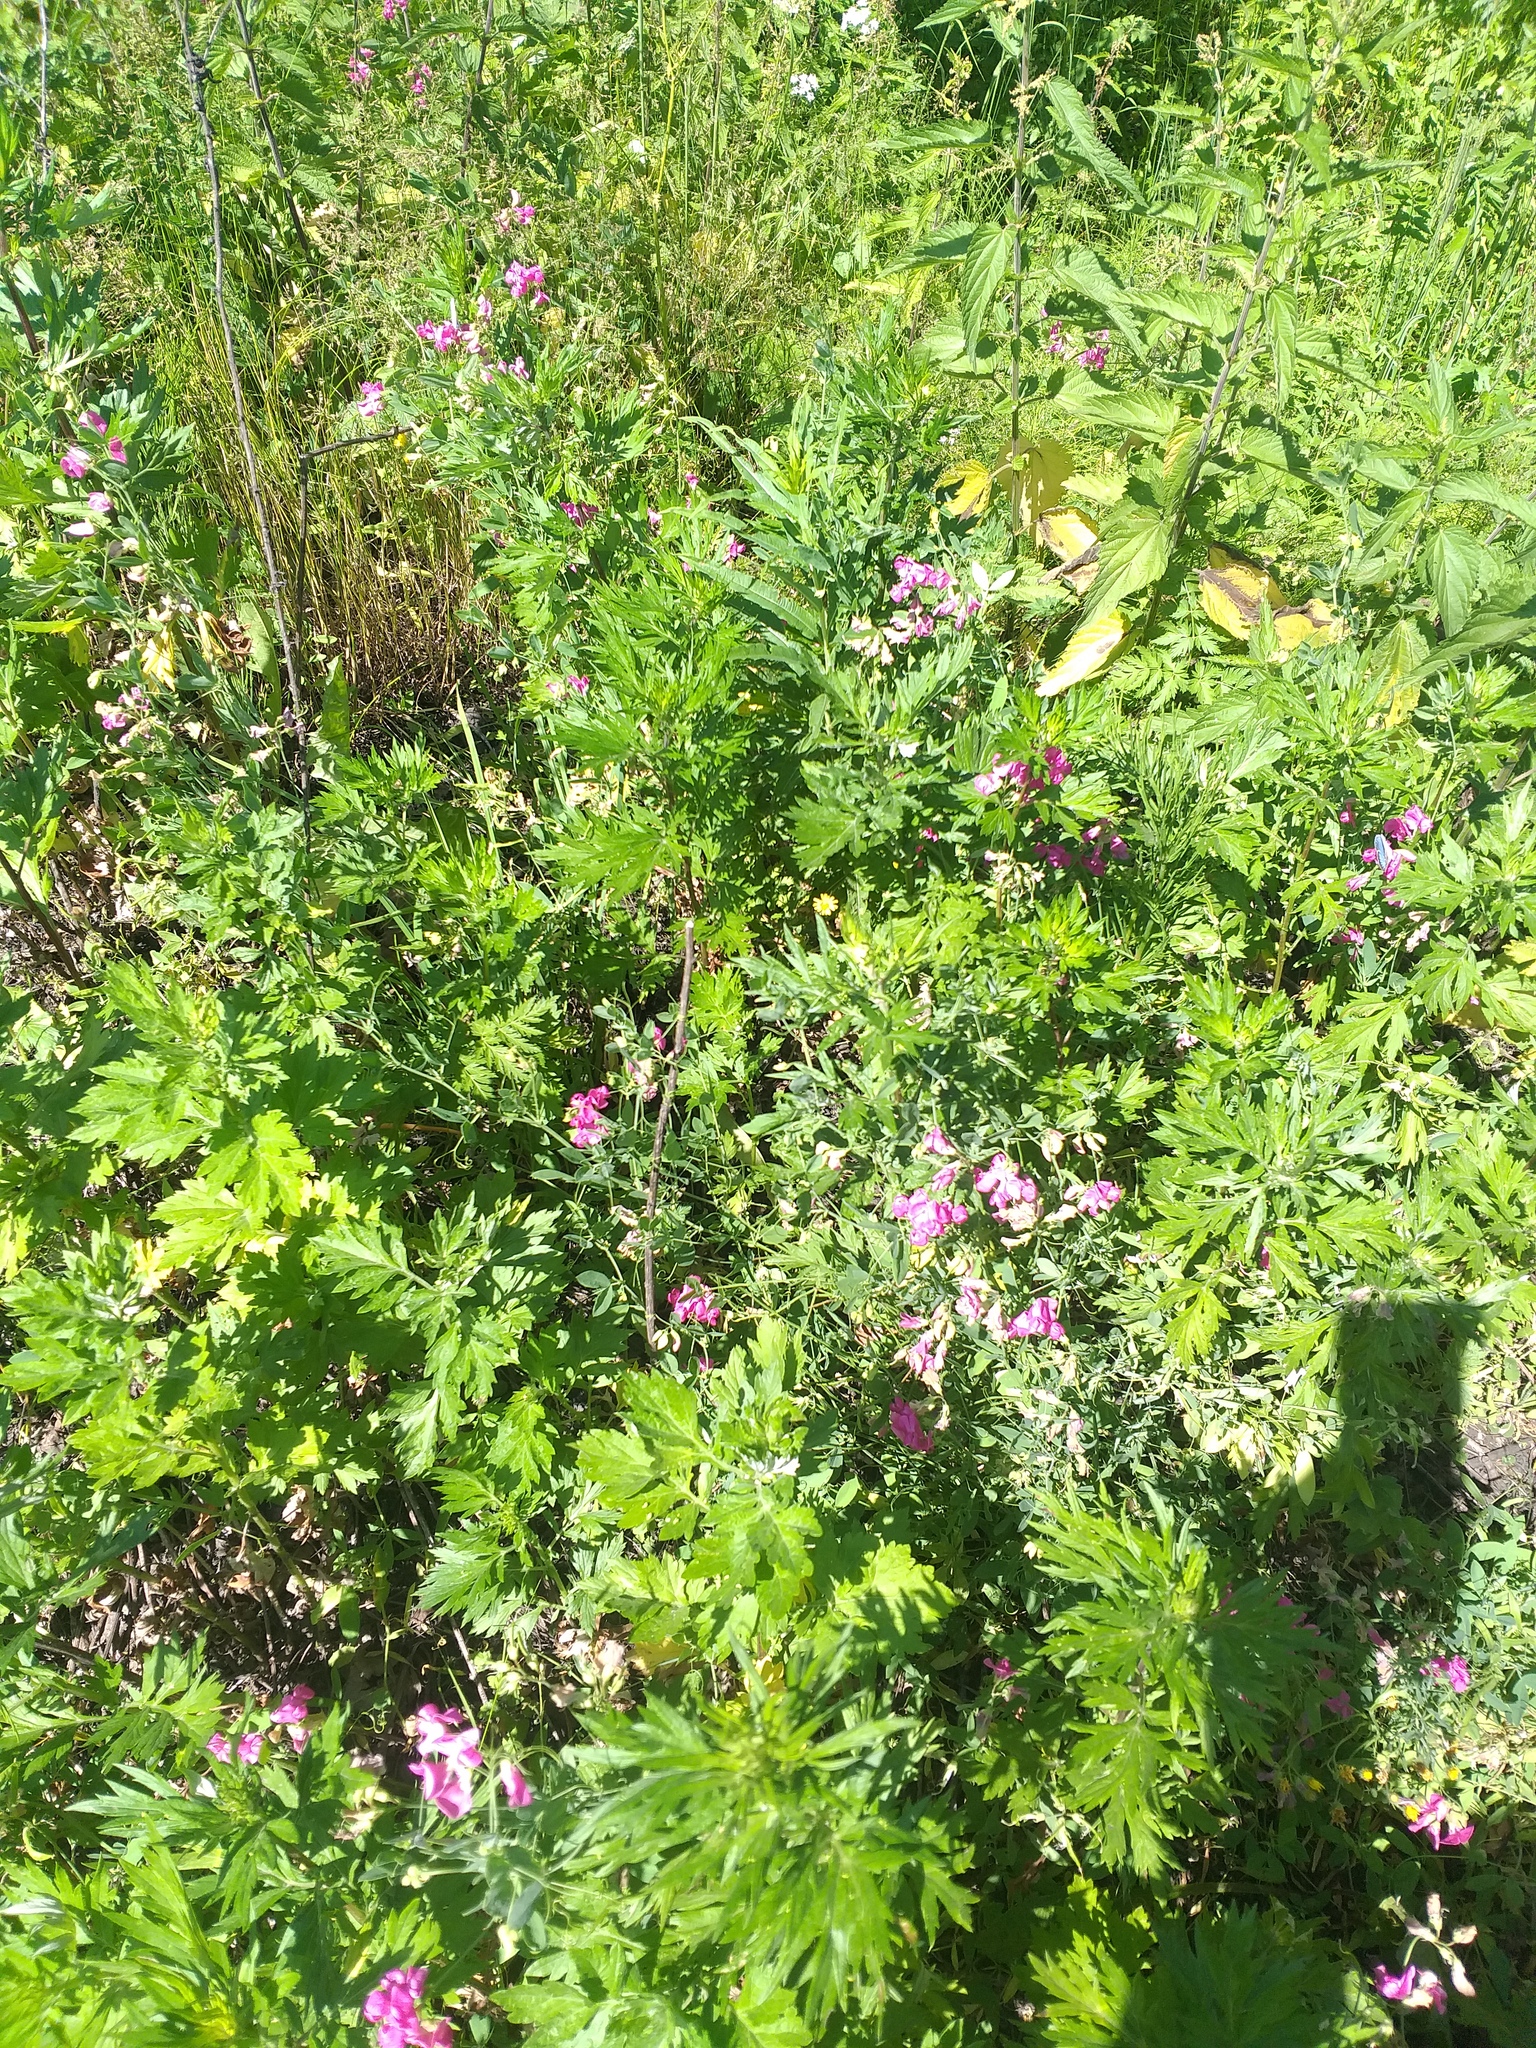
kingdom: Plantae
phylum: Tracheophyta
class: Magnoliopsida
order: Fabales
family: Fabaceae
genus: Lathyrus
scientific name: Lathyrus tuberosus
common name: Tuberous pea
